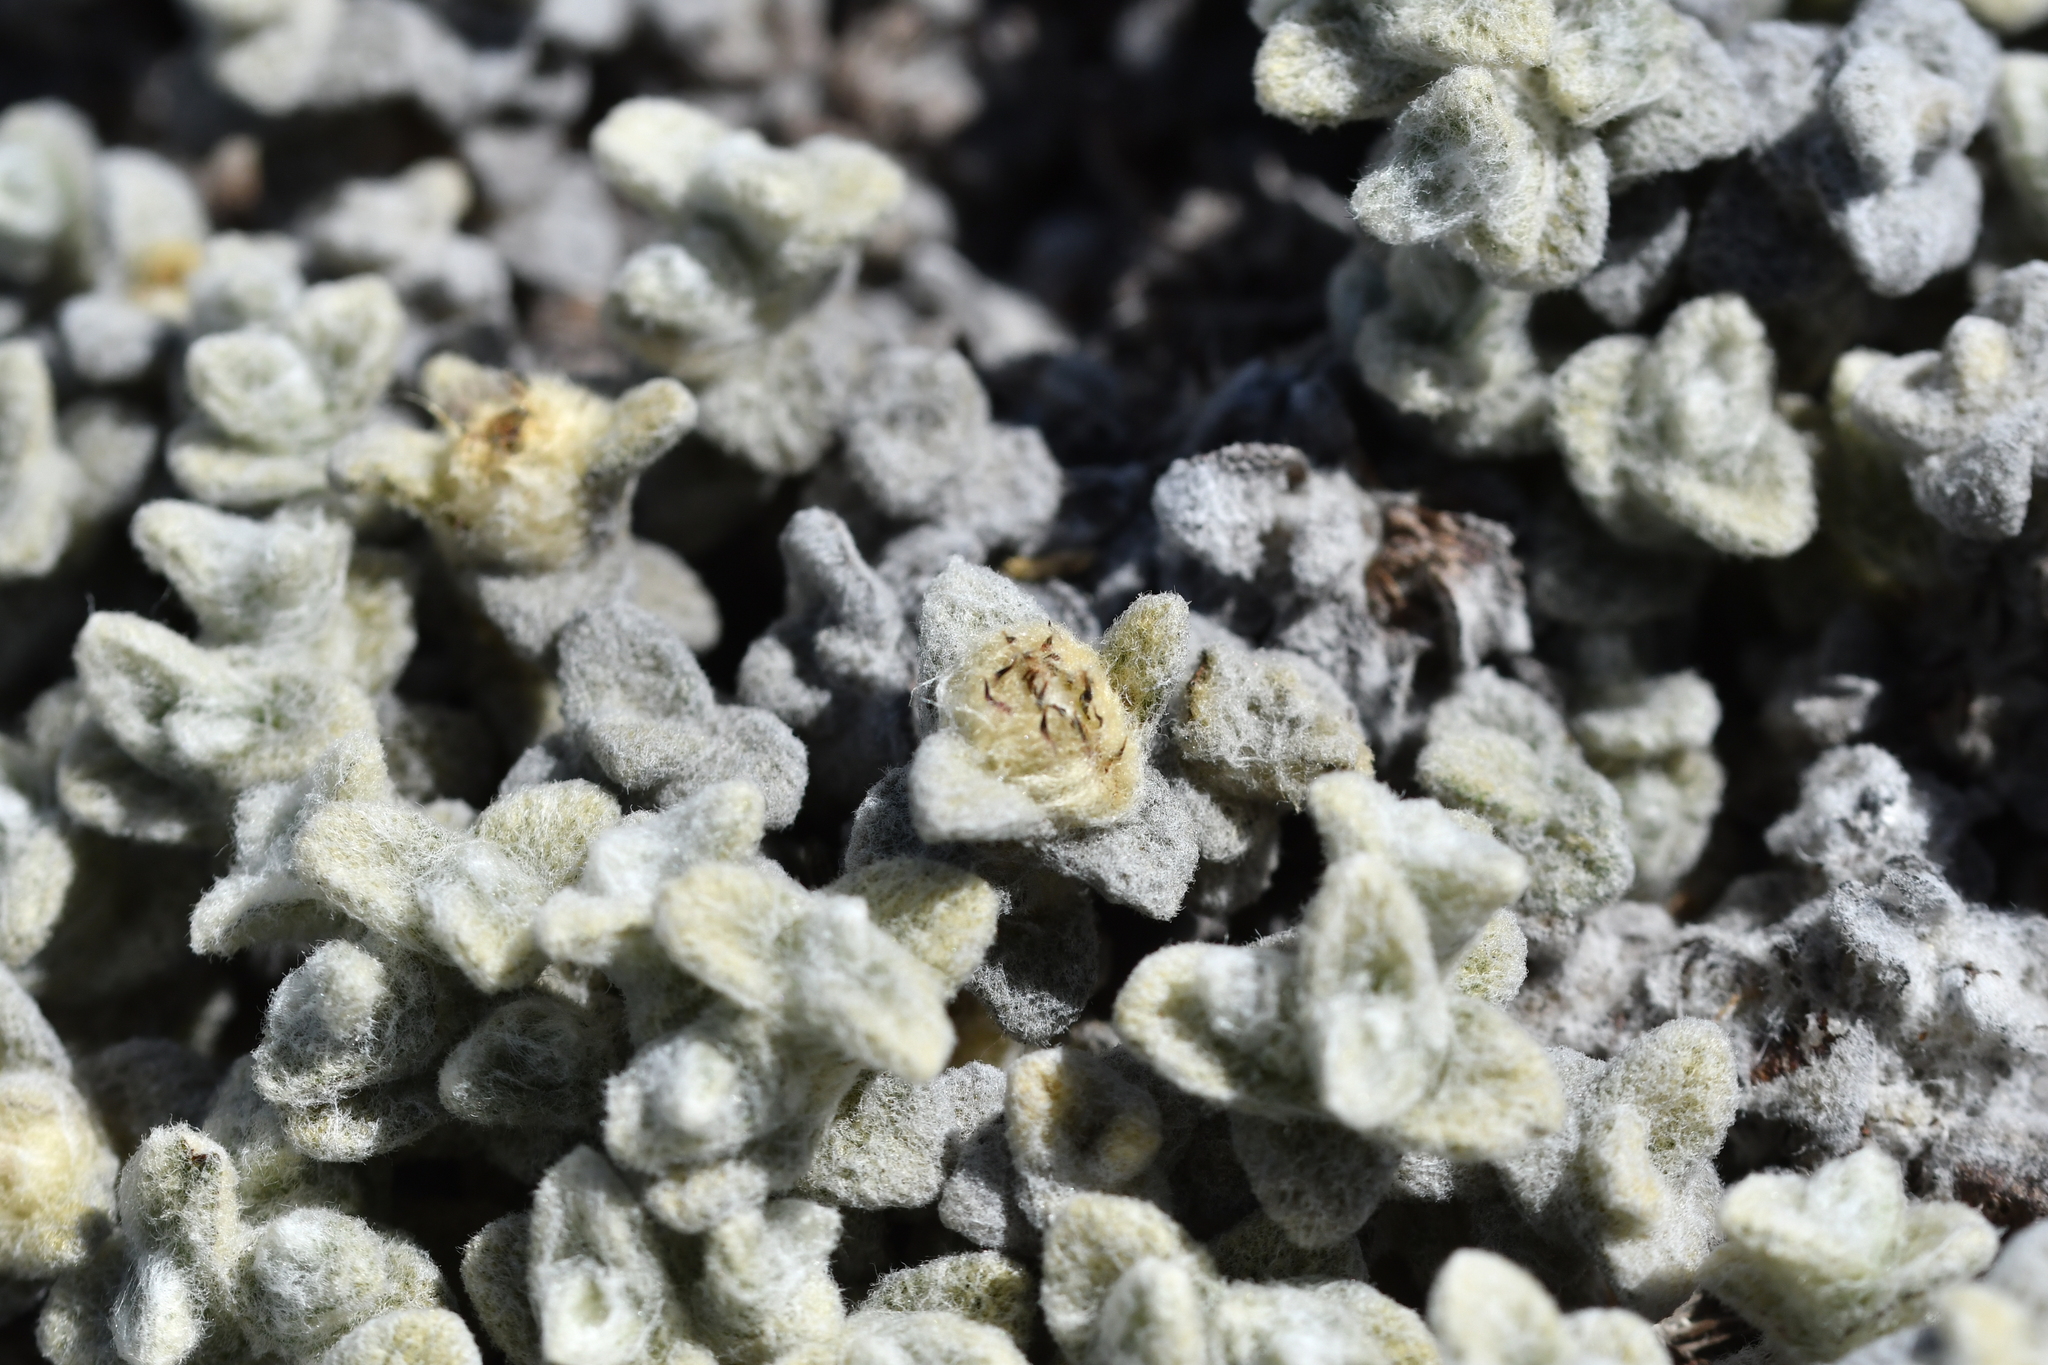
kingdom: Plantae
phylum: Tracheophyta
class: Magnoliopsida
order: Asterales
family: Asteraceae
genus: Haastia
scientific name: Haastia recurva
